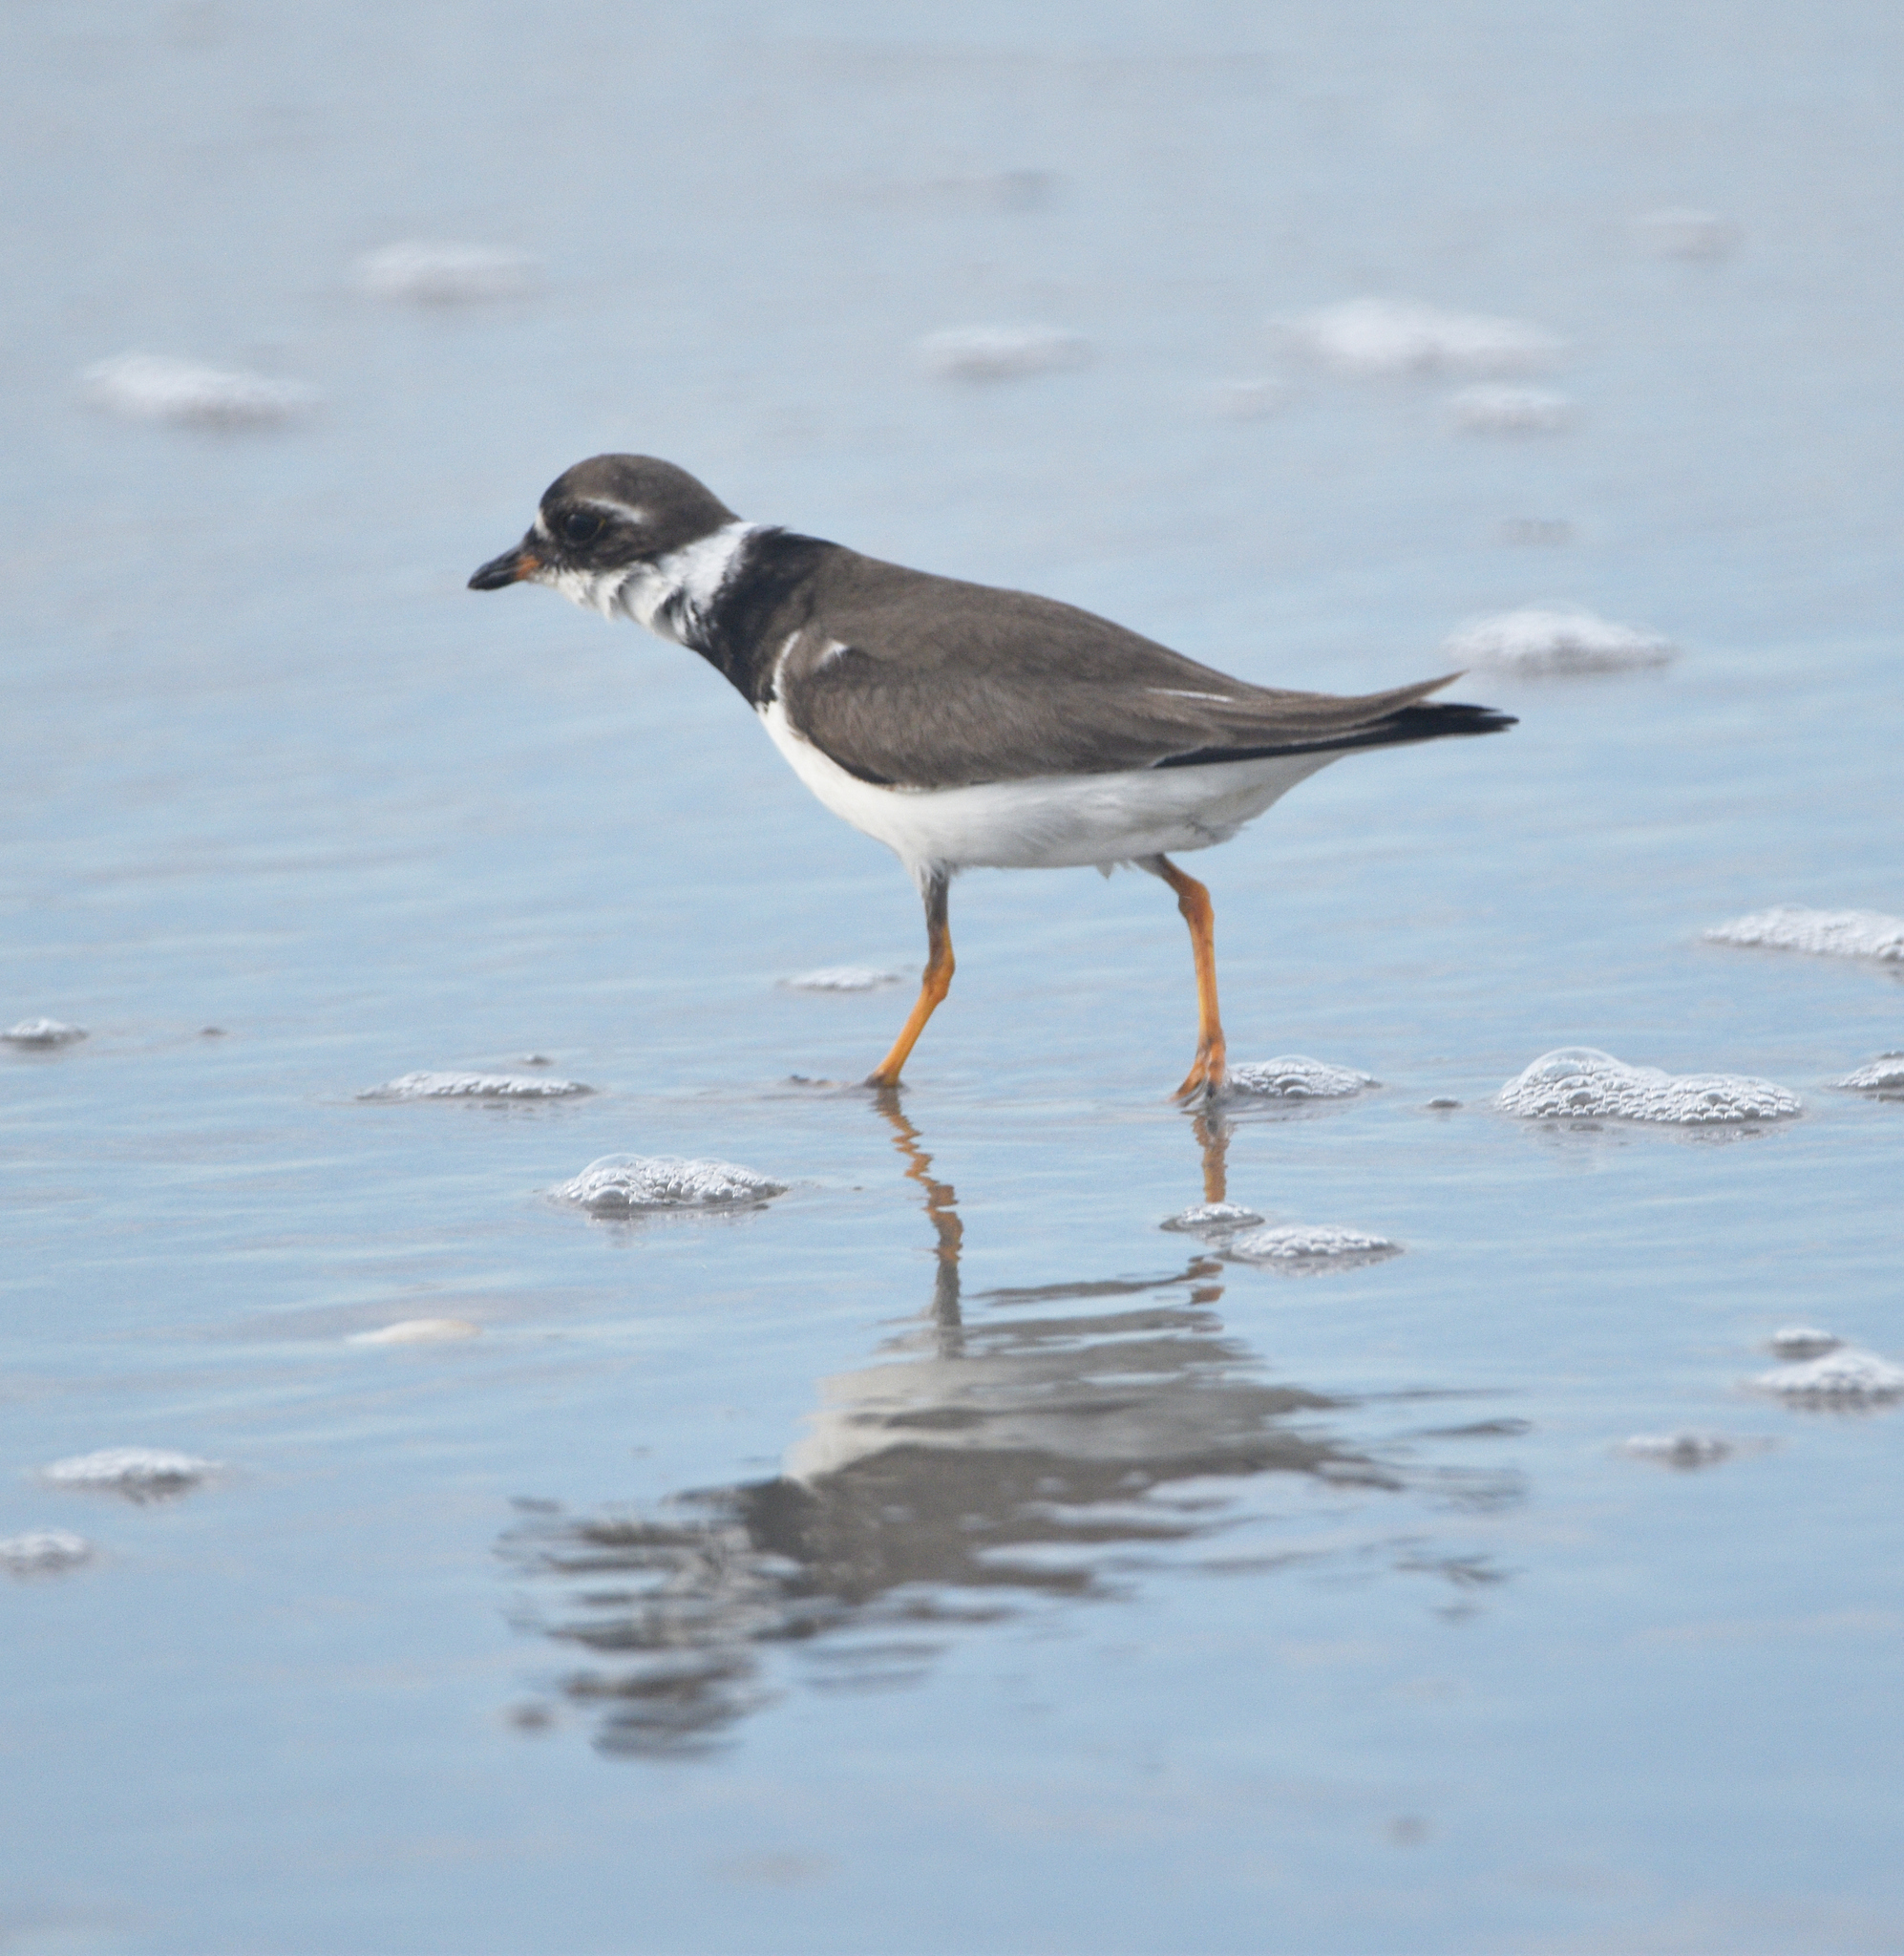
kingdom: Animalia
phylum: Chordata
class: Aves
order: Charadriiformes
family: Charadriidae
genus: Charadrius
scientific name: Charadrius semipalmatus
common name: Semipalmated plover
